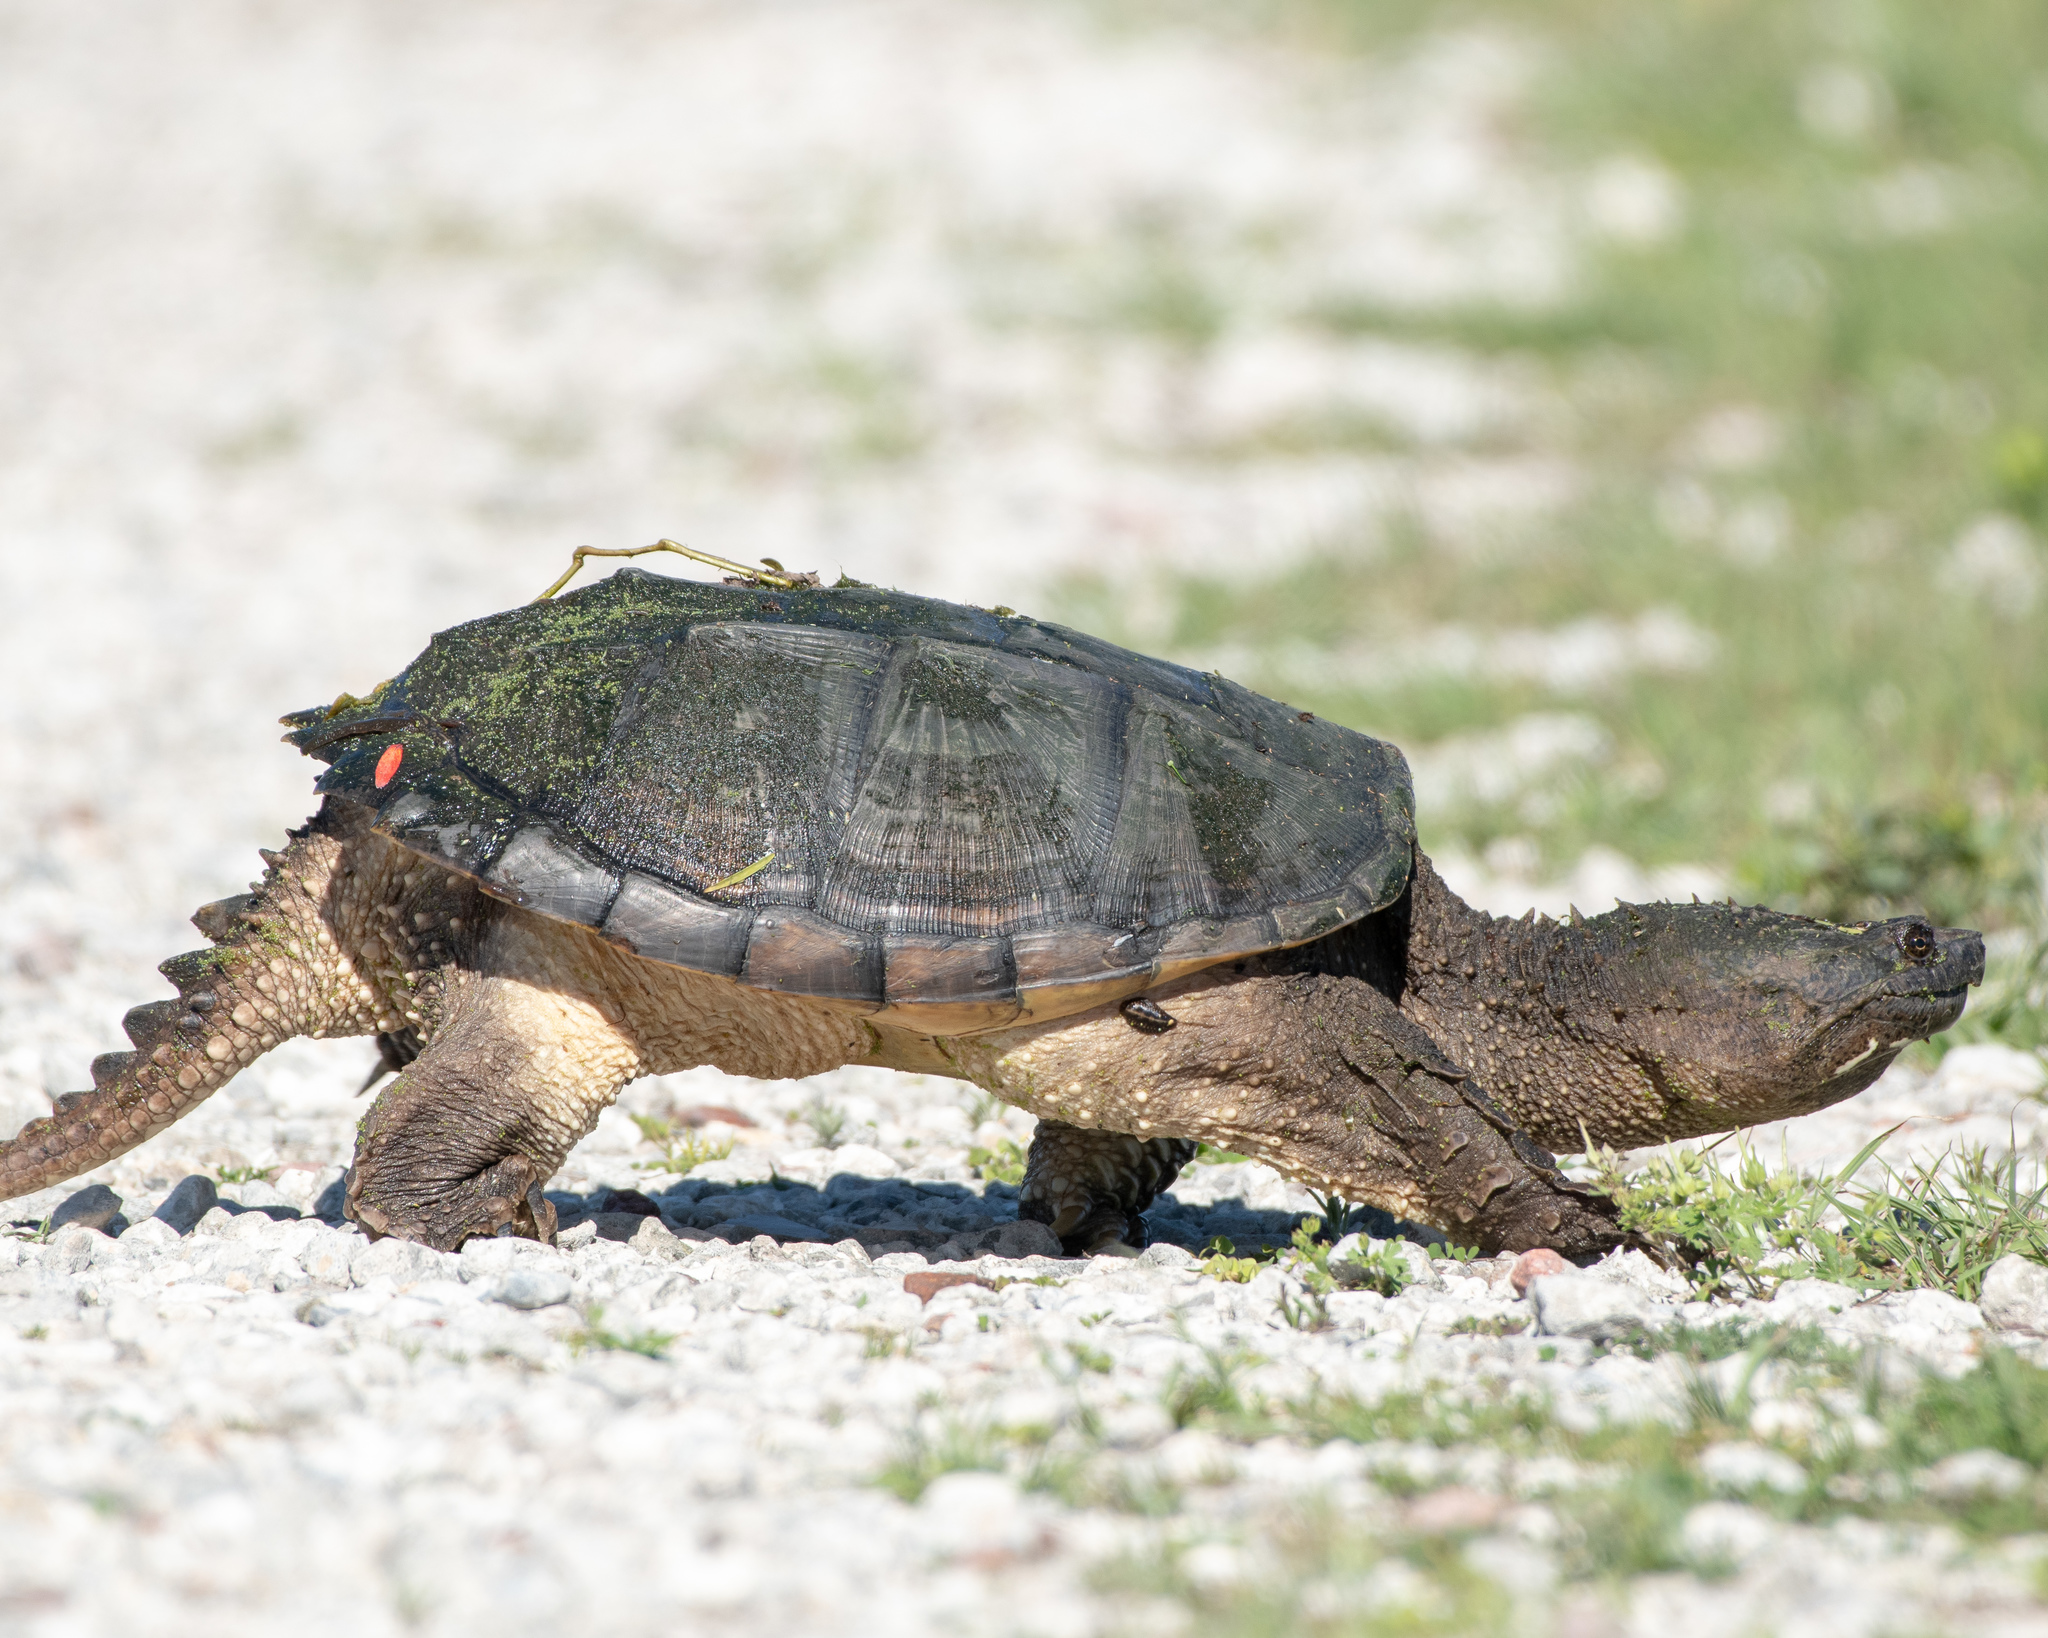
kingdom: Animalia
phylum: Chordata
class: Testudines
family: Chelydridae
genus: Chelydra
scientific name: Chelydra serpentina
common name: Common snapping turtle
